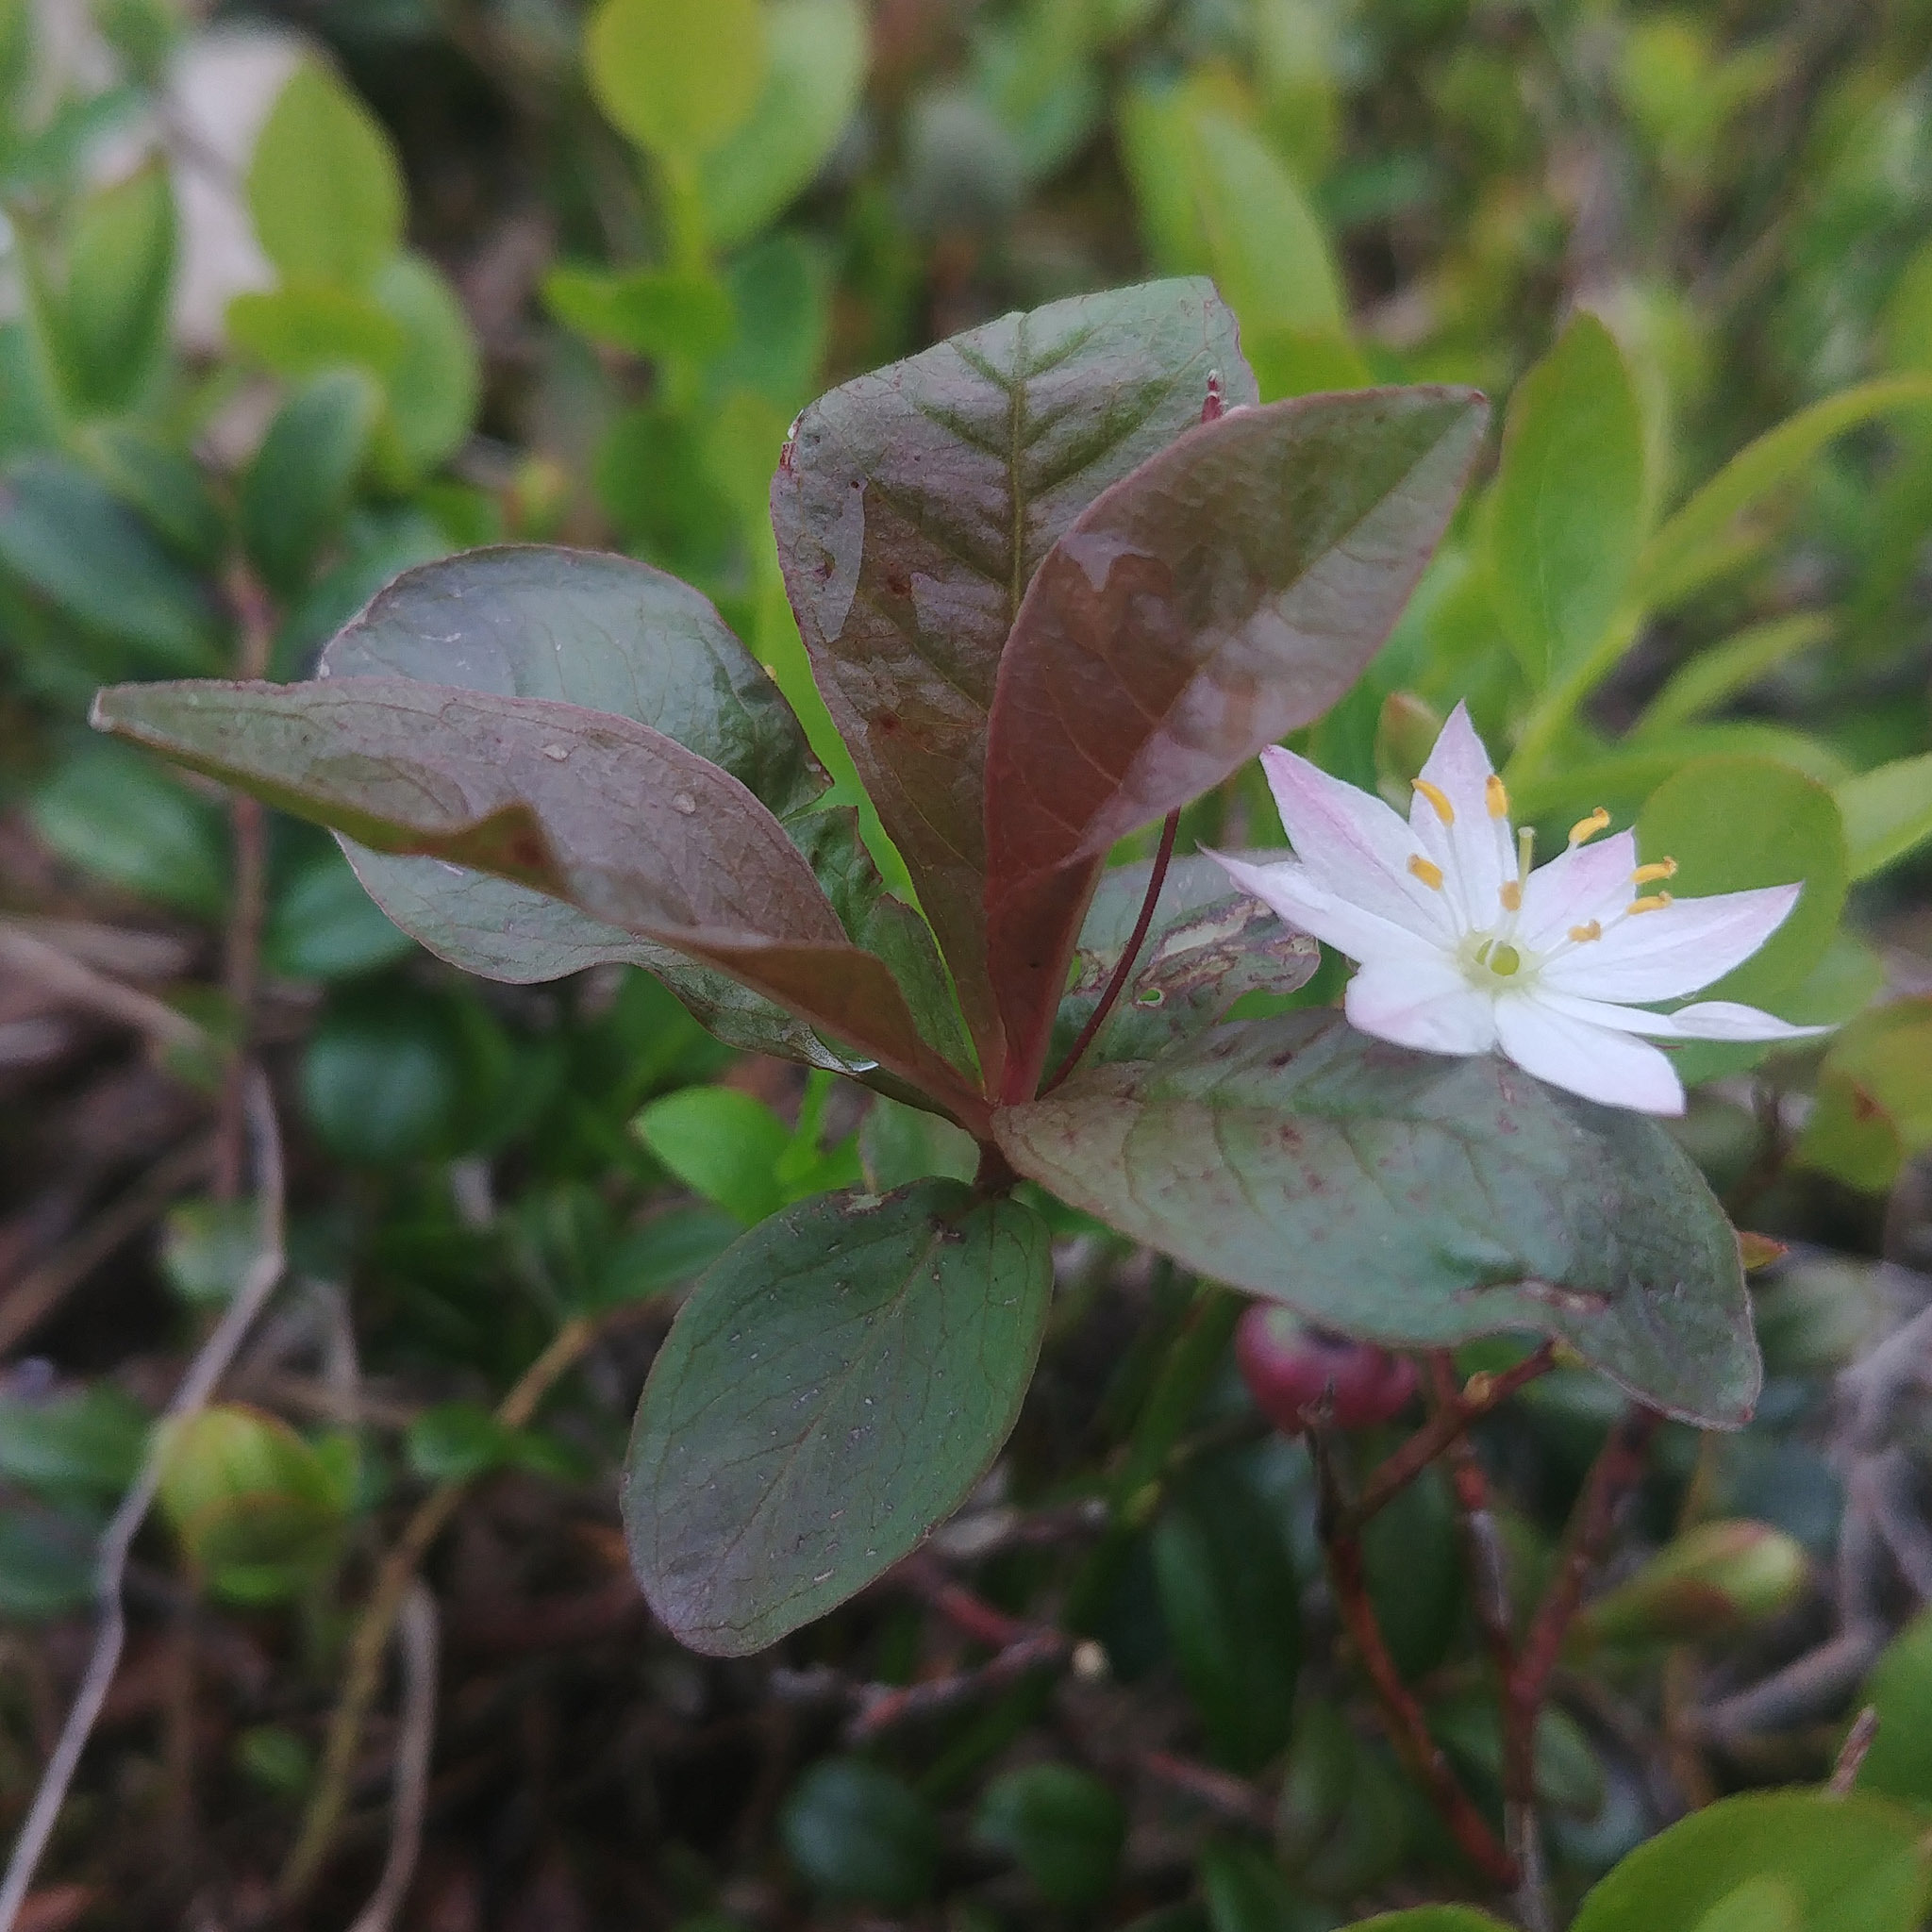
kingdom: Plantae
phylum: Tracheophyta
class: Magnoliopsida
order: Ericales
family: Primulaceae
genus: Lysimachia
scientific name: Lysimachia europaea
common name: Arctic starflower
